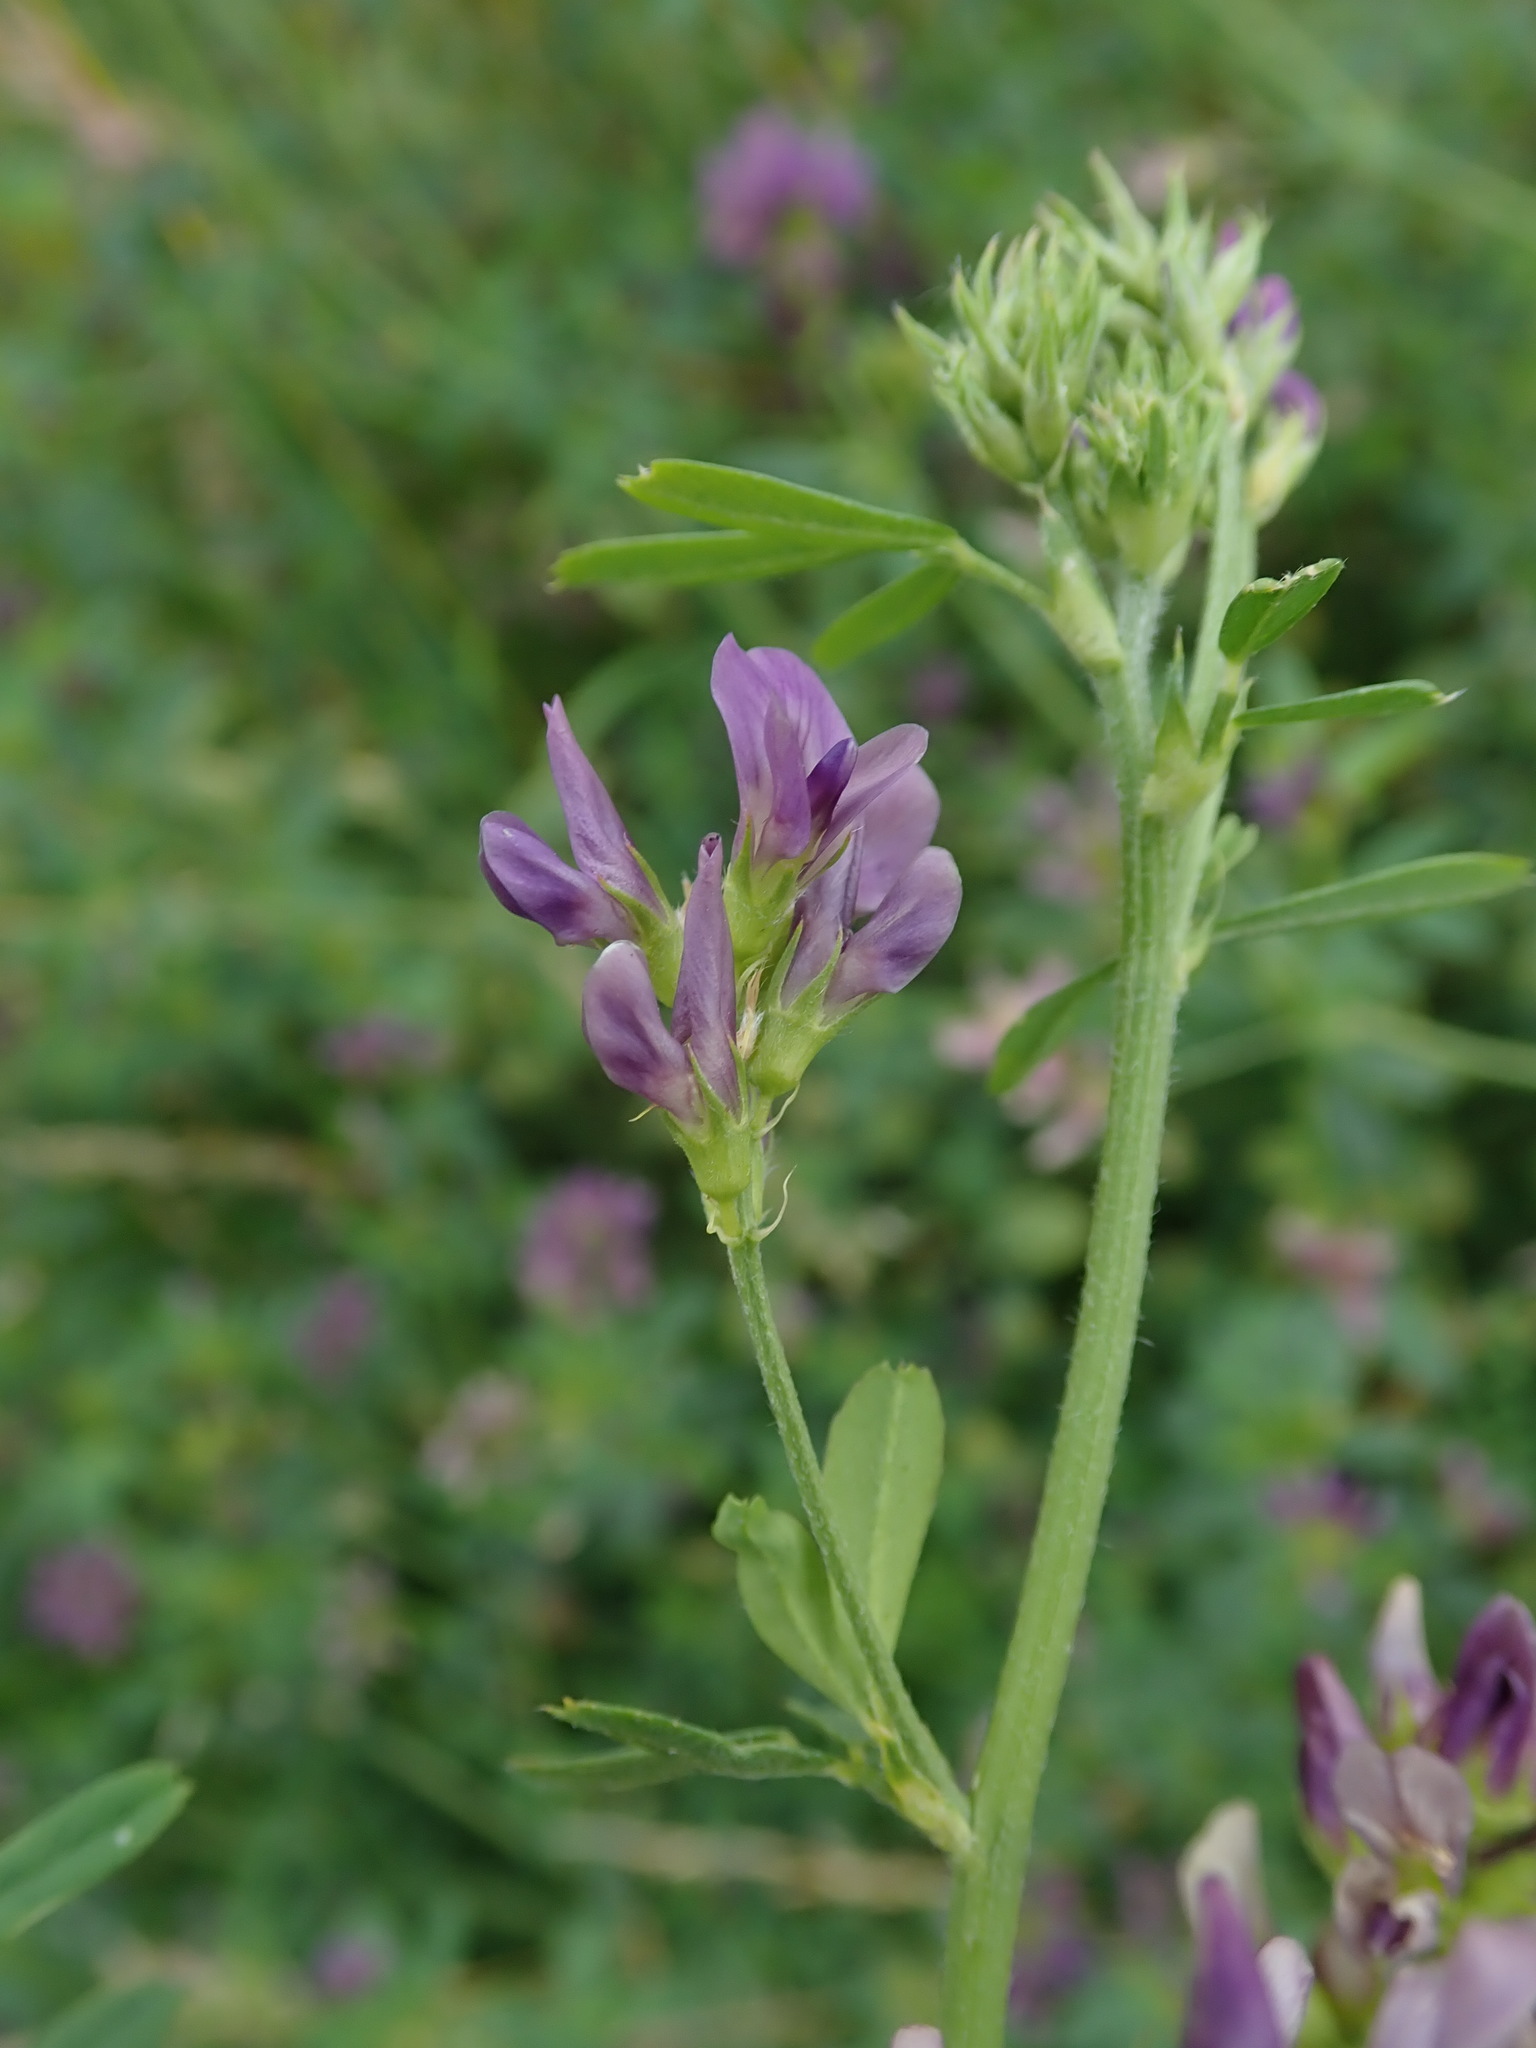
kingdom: Plantae
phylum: Tracheophyta
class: Magnoliopsida
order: Fabales
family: Fabaceae
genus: Medicago
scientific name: Medicago sativa
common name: Alfalfa
